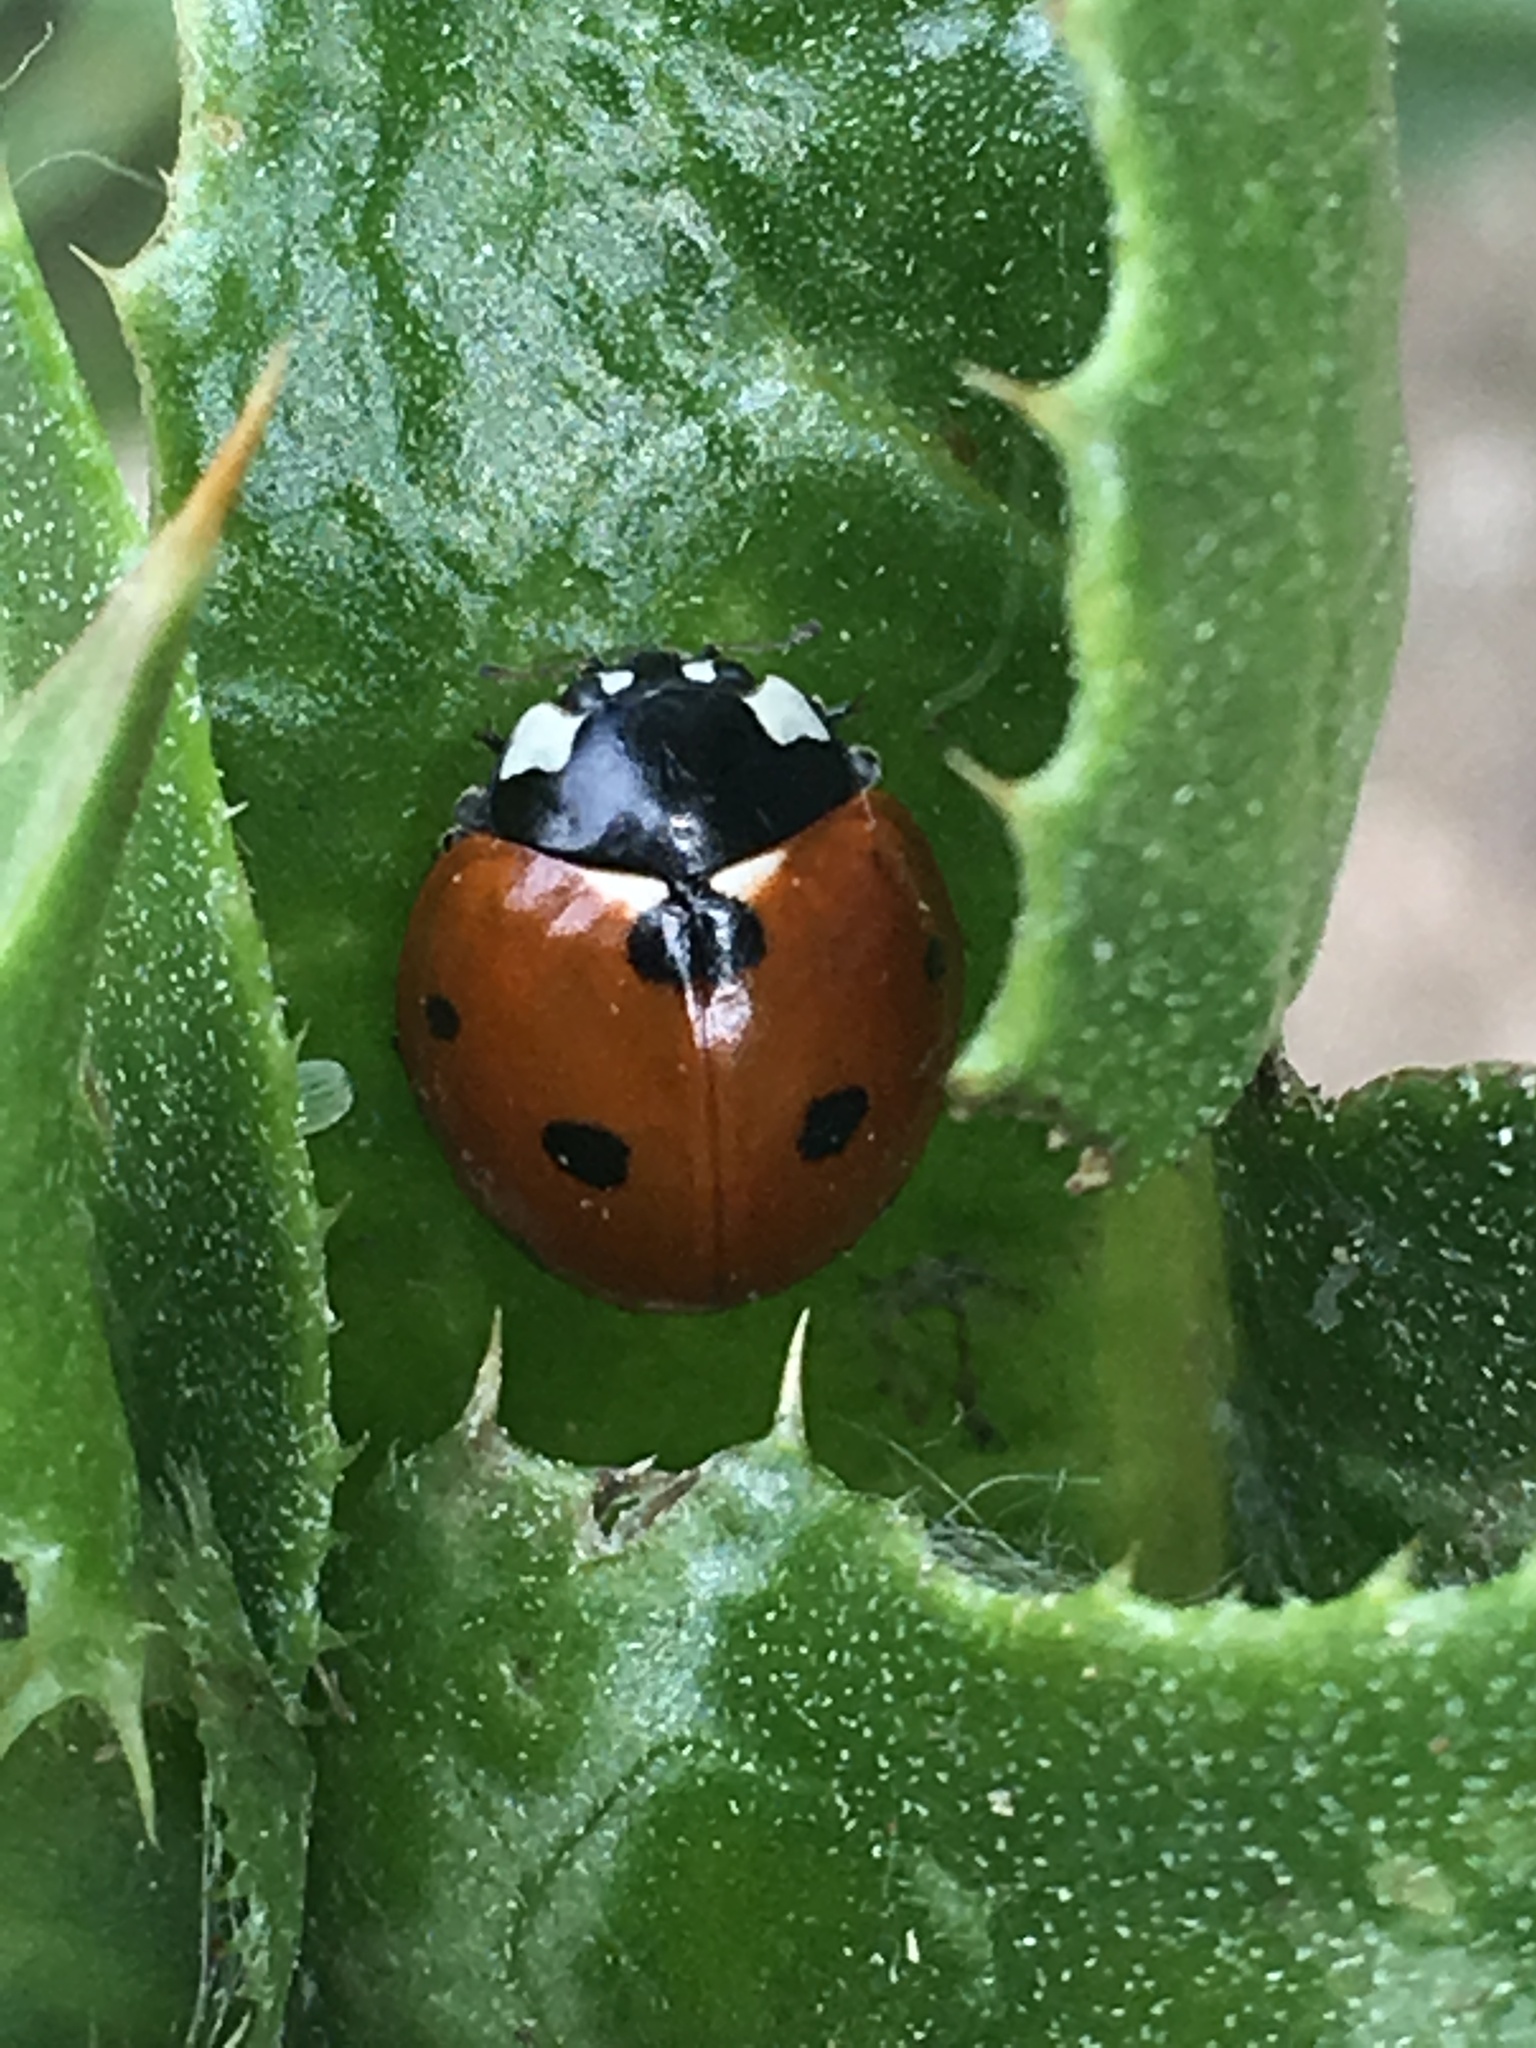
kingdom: Animalia
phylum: Arthropoda
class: Insecta
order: Coleoptera
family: Coccinellidae
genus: Coccinella
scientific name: Coccinella septempunctata
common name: Sevenspotted lady beetle
